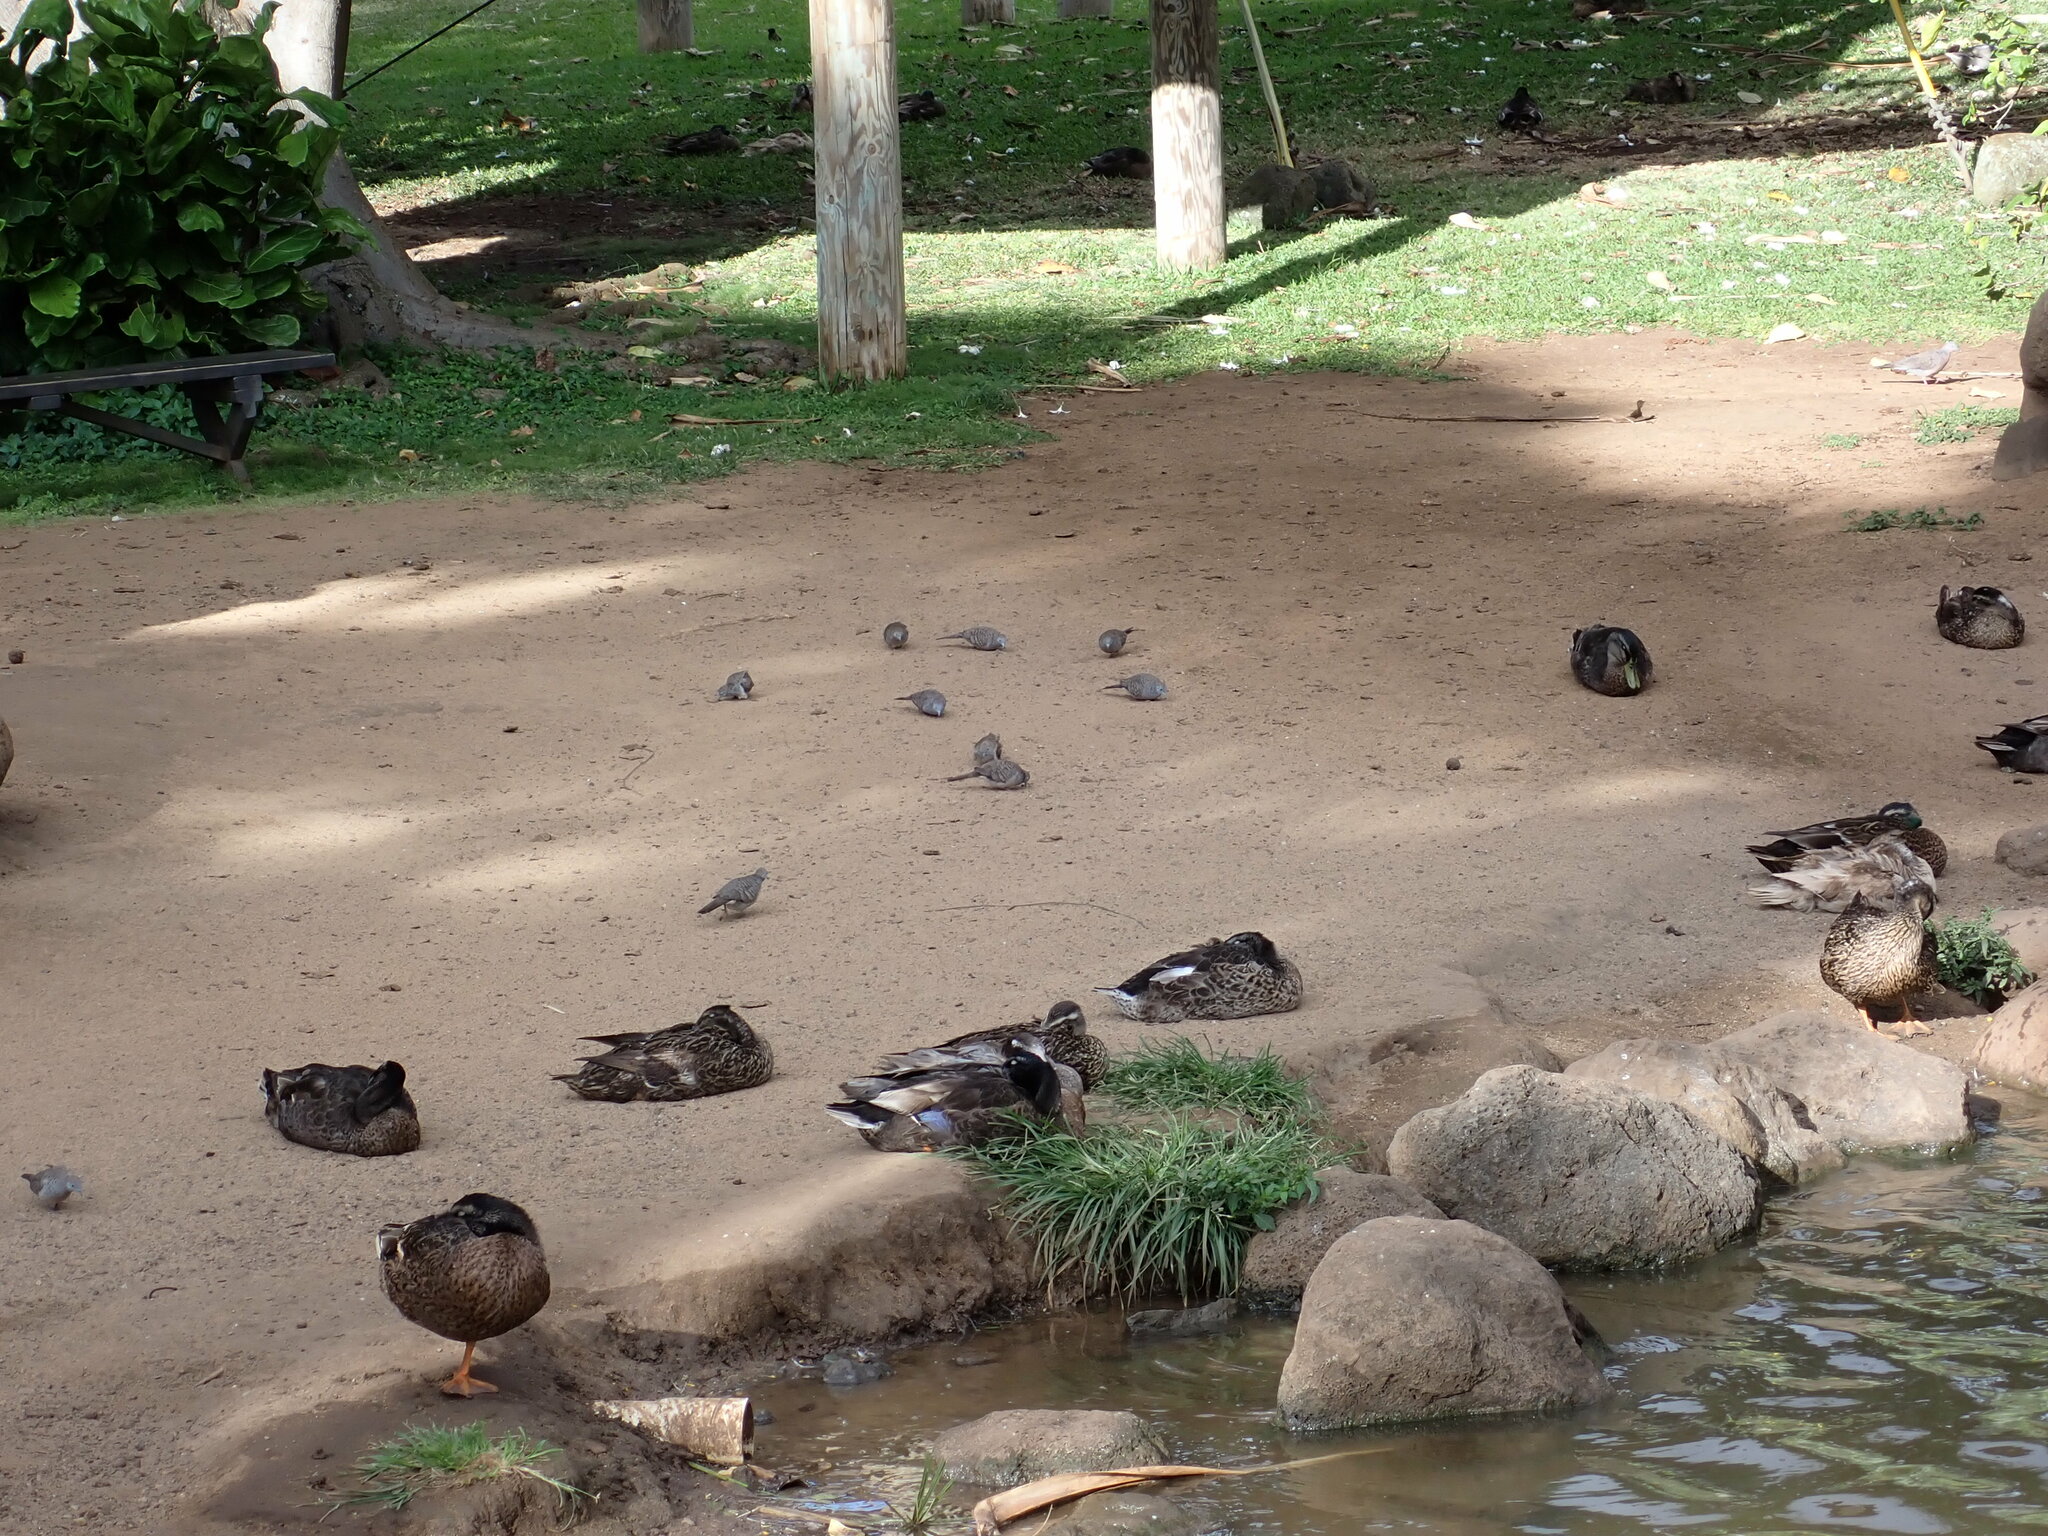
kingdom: Animalia
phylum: Chordata
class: Aves
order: Columbiformes
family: Columbidae
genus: Geopelia
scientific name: Geopelia striata
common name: Zebra dove
